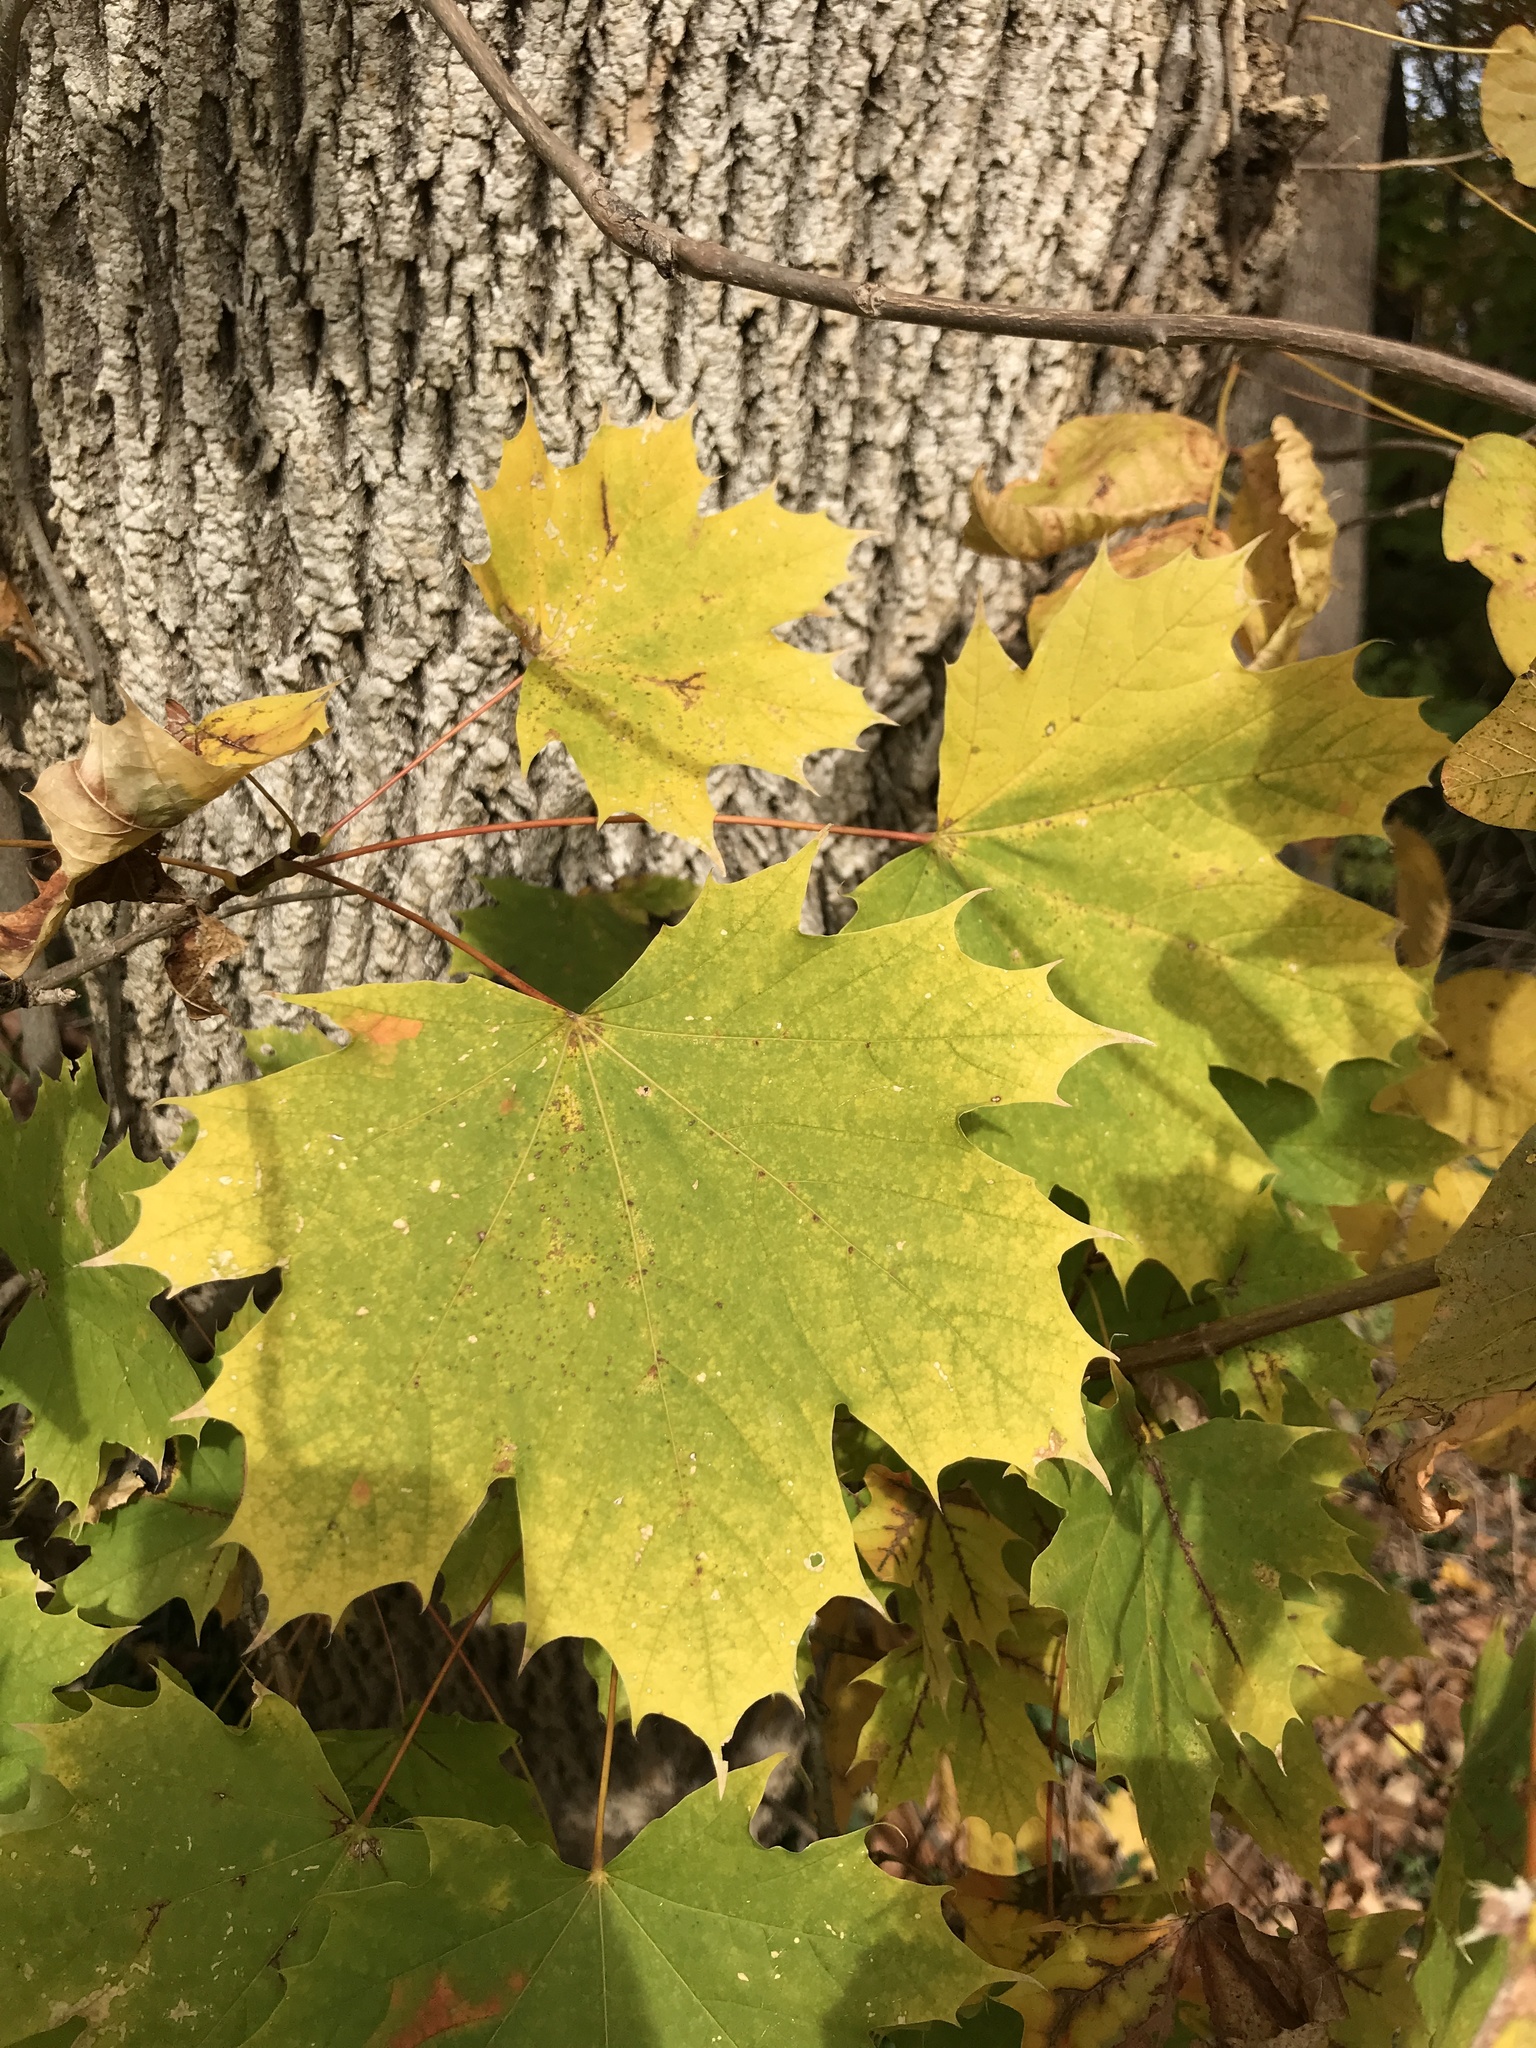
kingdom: Plantae
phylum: Tracheophyta
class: Magnoliopsida
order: Sapindales
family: Sapindaceae
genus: Acer
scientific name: Acer platanoides
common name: Norway maple
